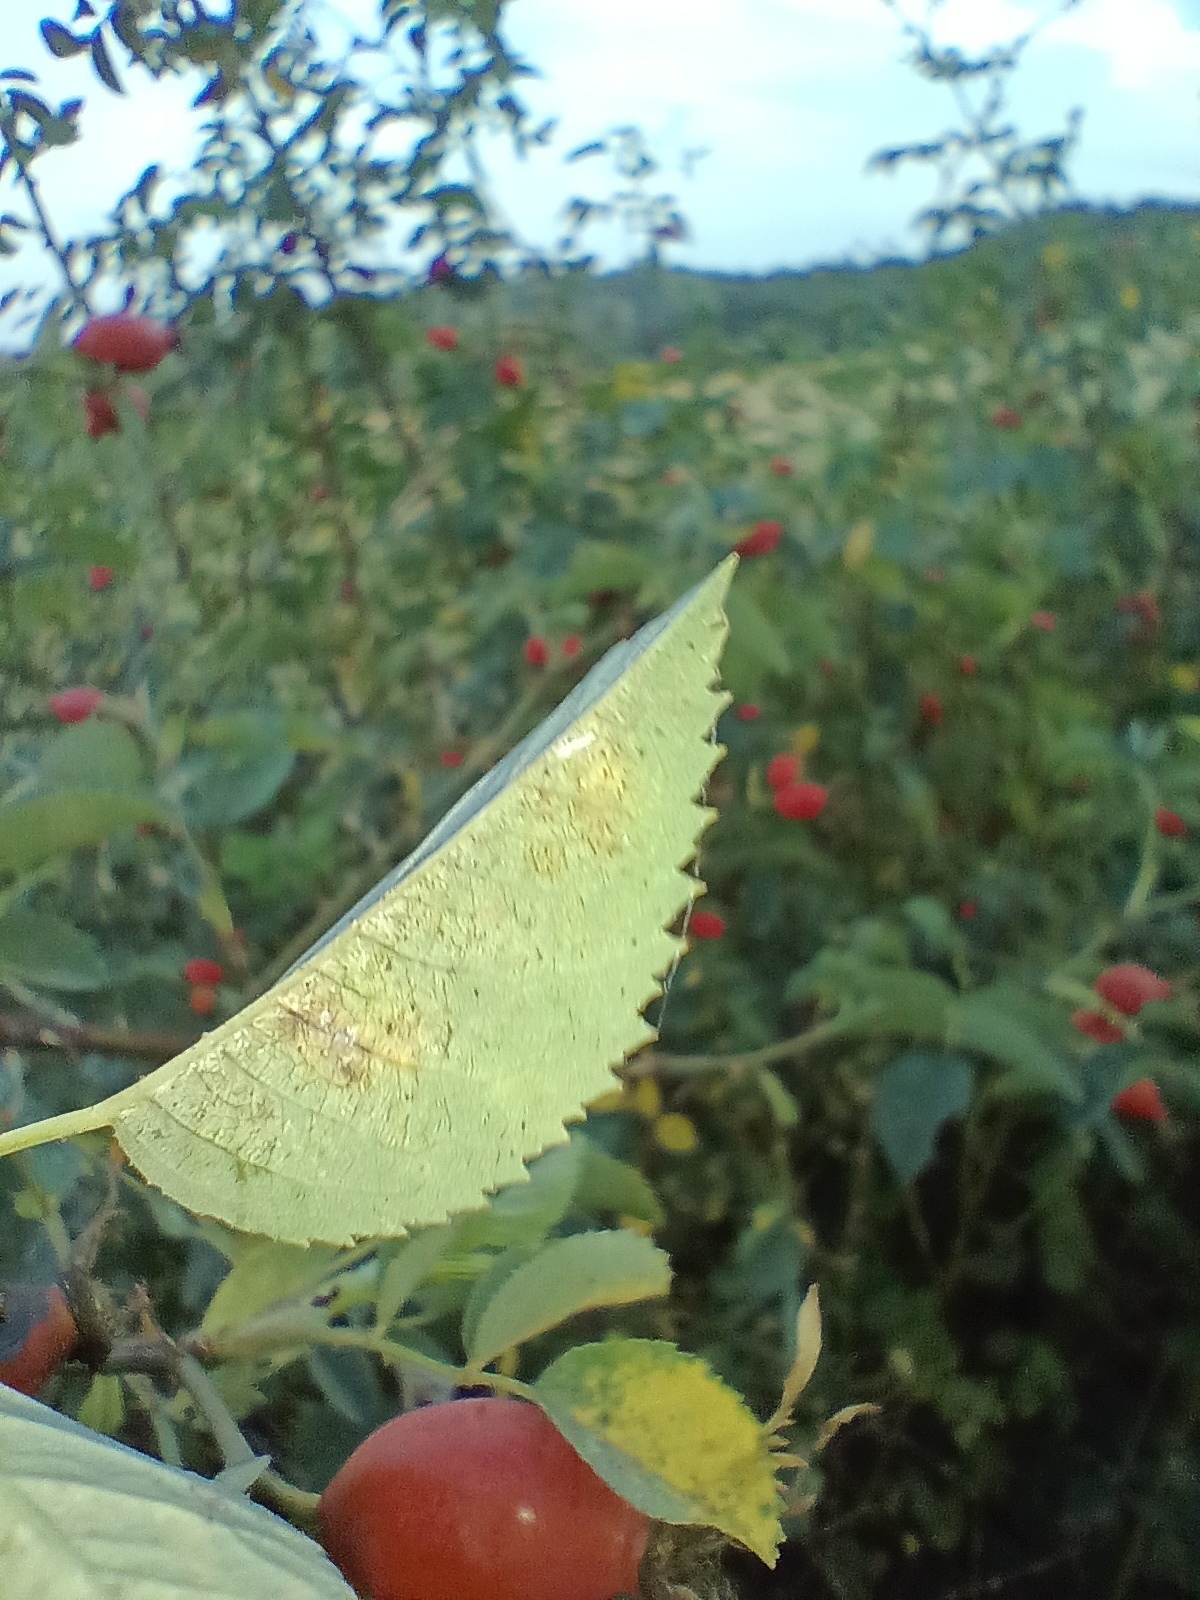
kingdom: Plantae
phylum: Tracheophyta
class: Magnoliopsida
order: Rosales
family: Rosaceae
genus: Rosa
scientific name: Rosa dumalis
